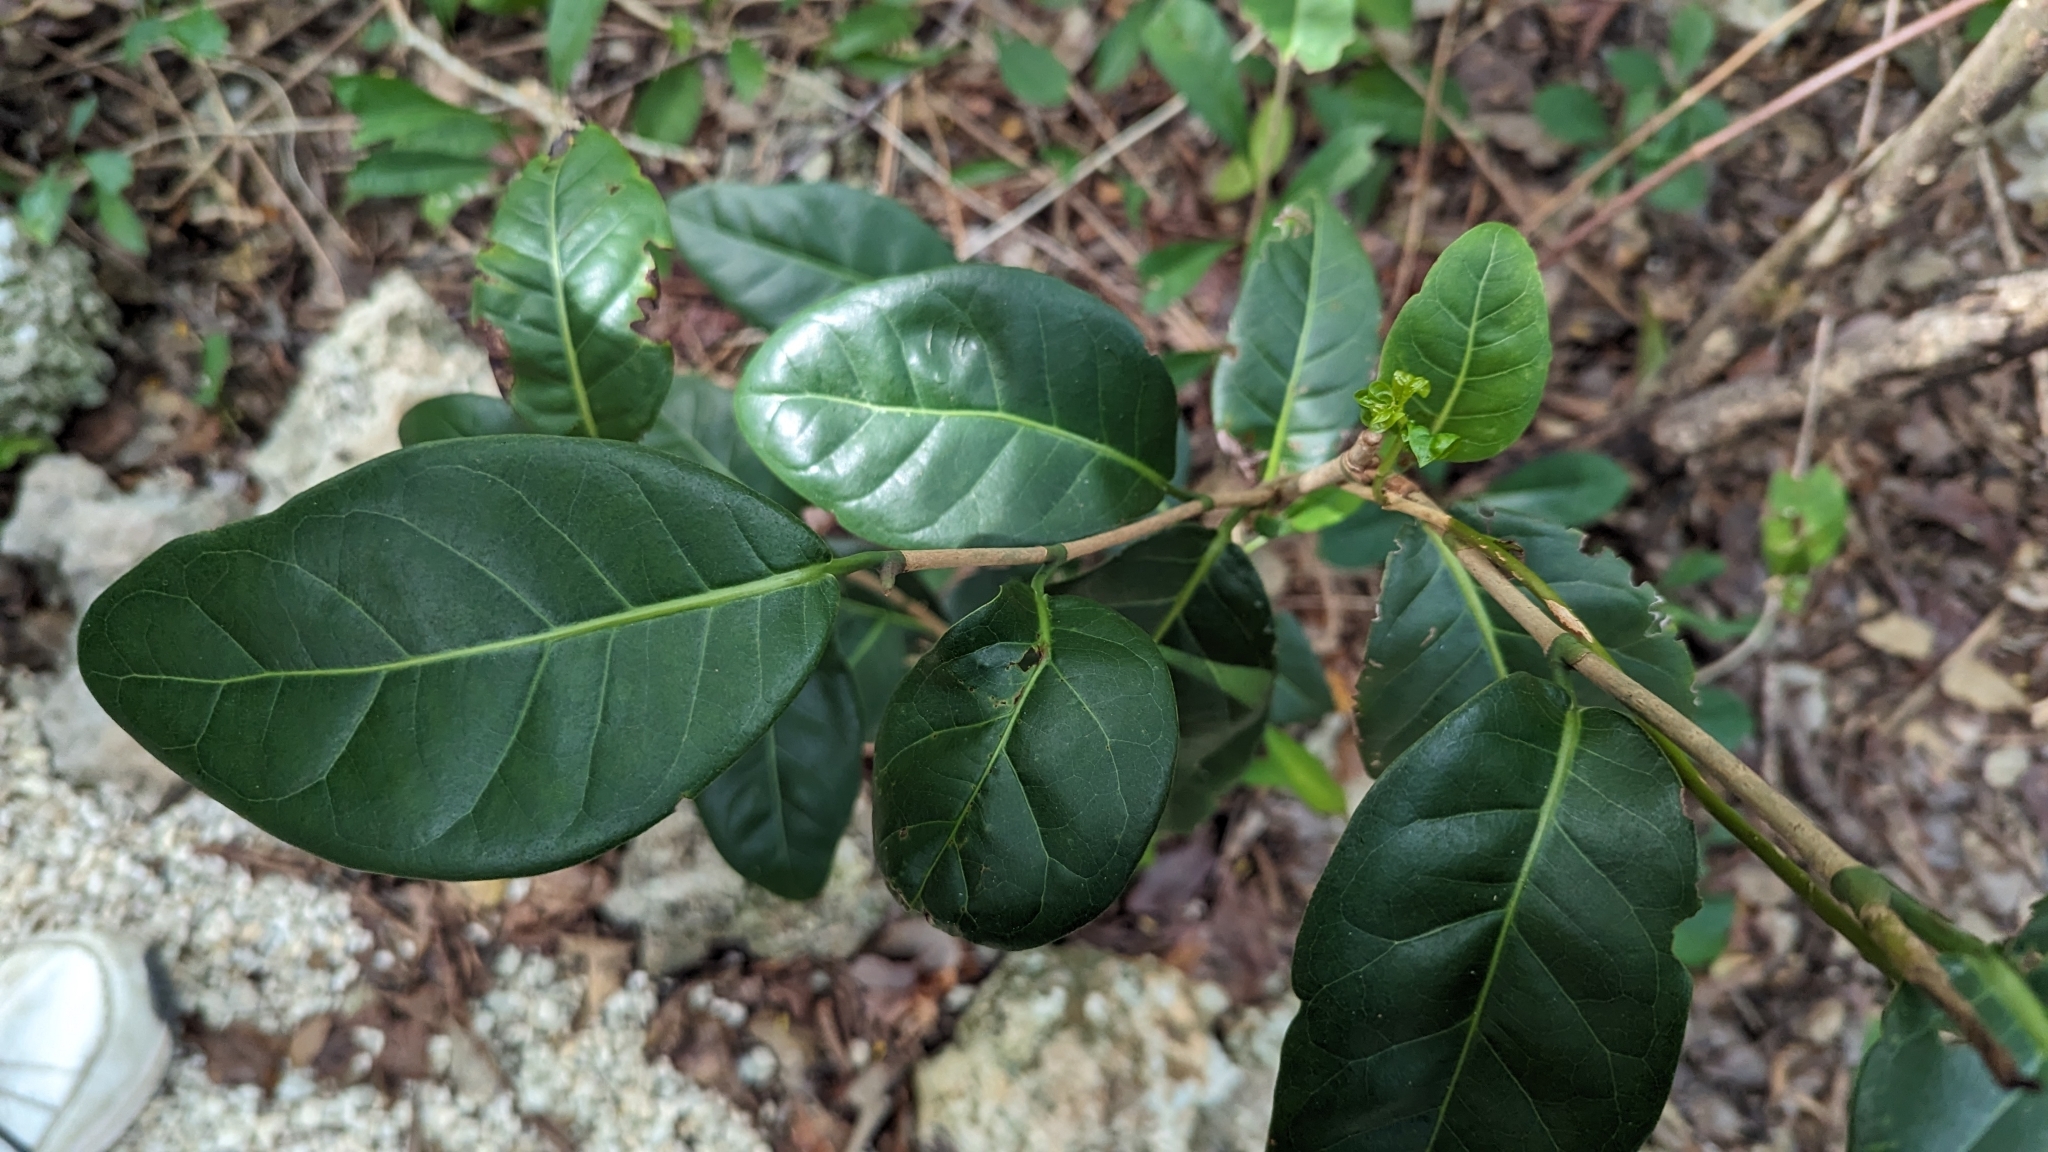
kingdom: Plantae
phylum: Tracheophyta
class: Magnoliopsida
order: Caryophyllales
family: Polygonaceae
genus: Coccoloba
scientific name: Coccoloba diversifolia
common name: Pigeon-plum
